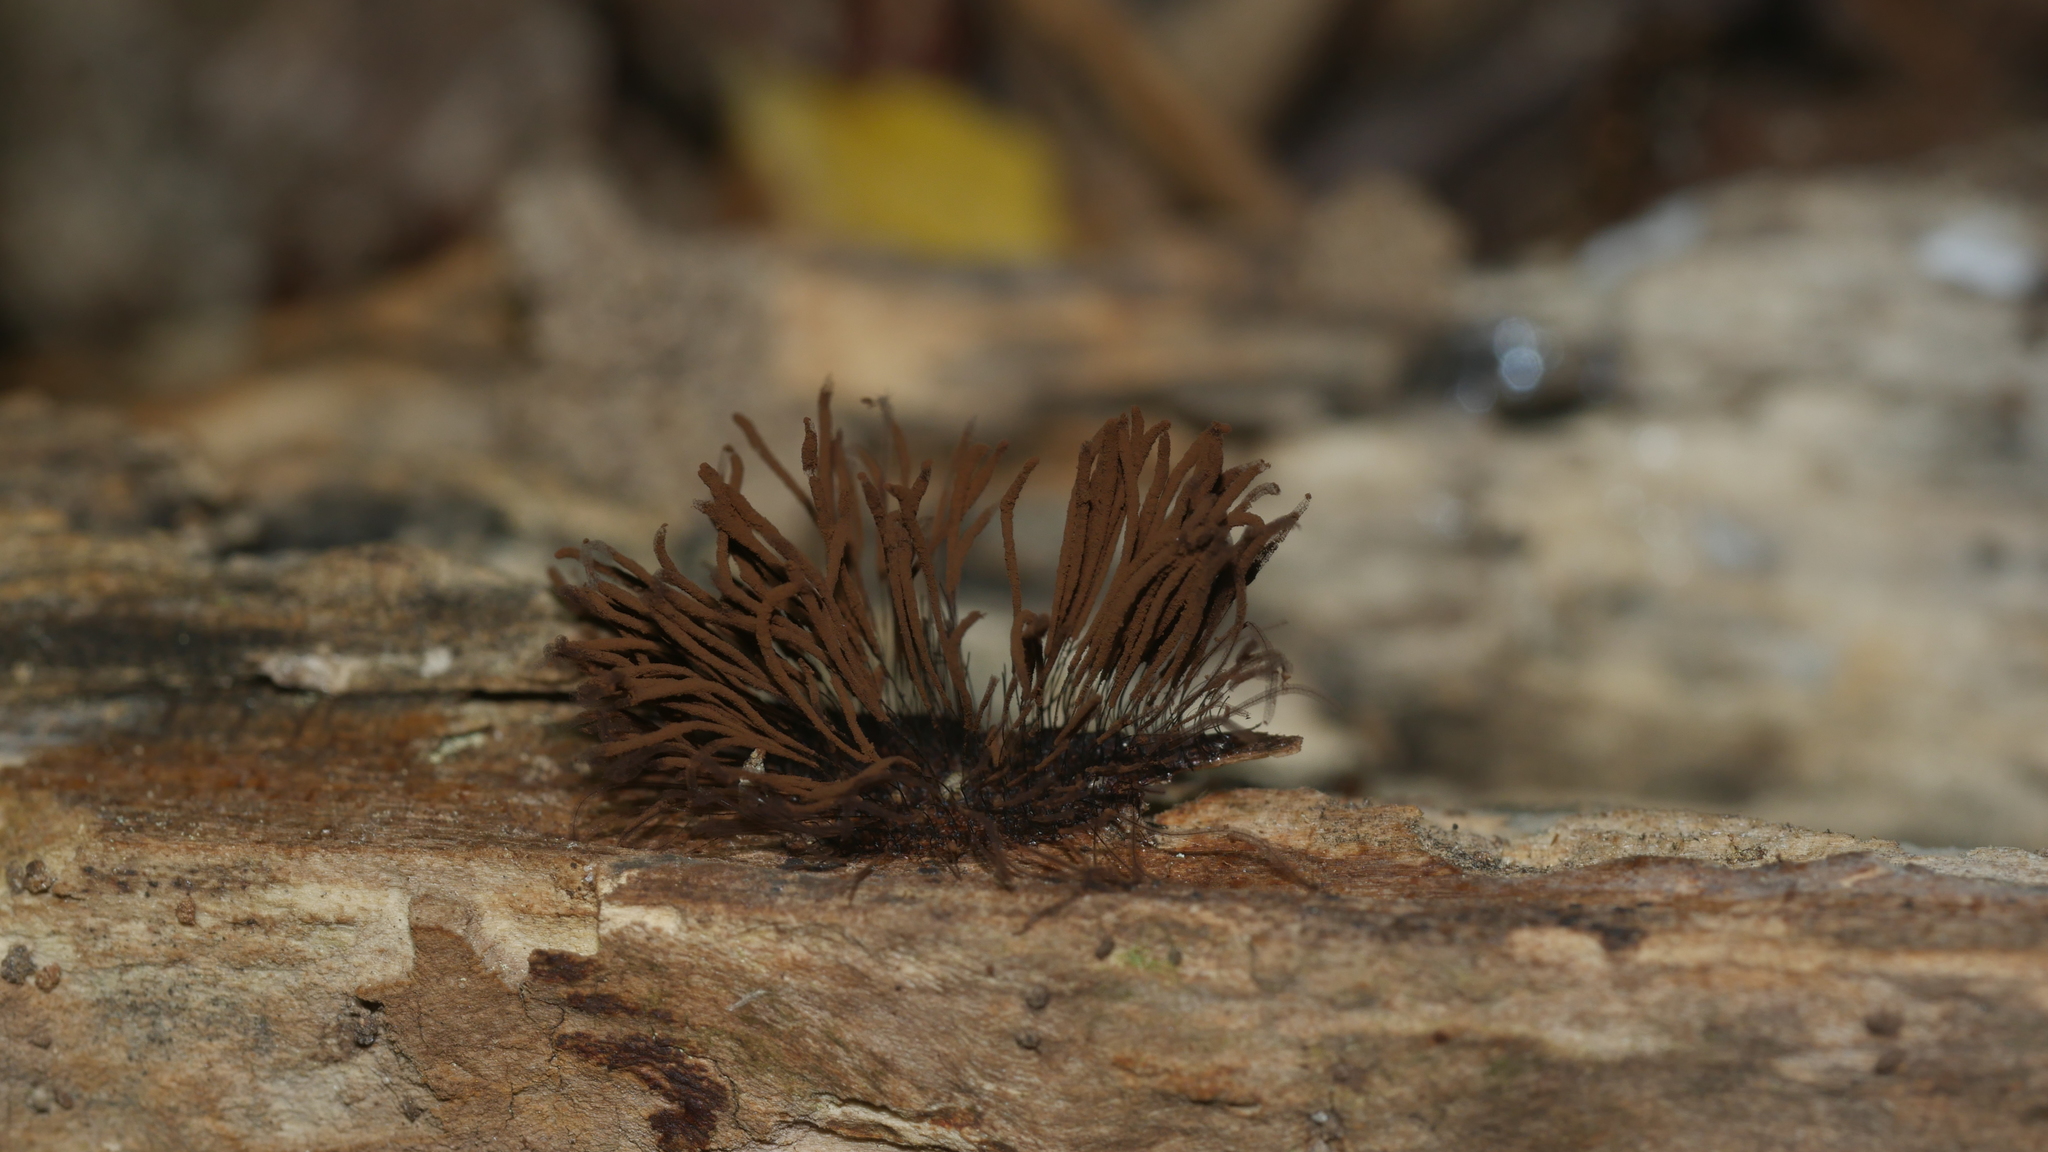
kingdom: Protozoa
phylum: Mycetozoa
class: Myxomycetes
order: Stemonitidales
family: Stemonitidaceae
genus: Stemonitis
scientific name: Stemonitis splendens
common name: Chocolate tube slime
